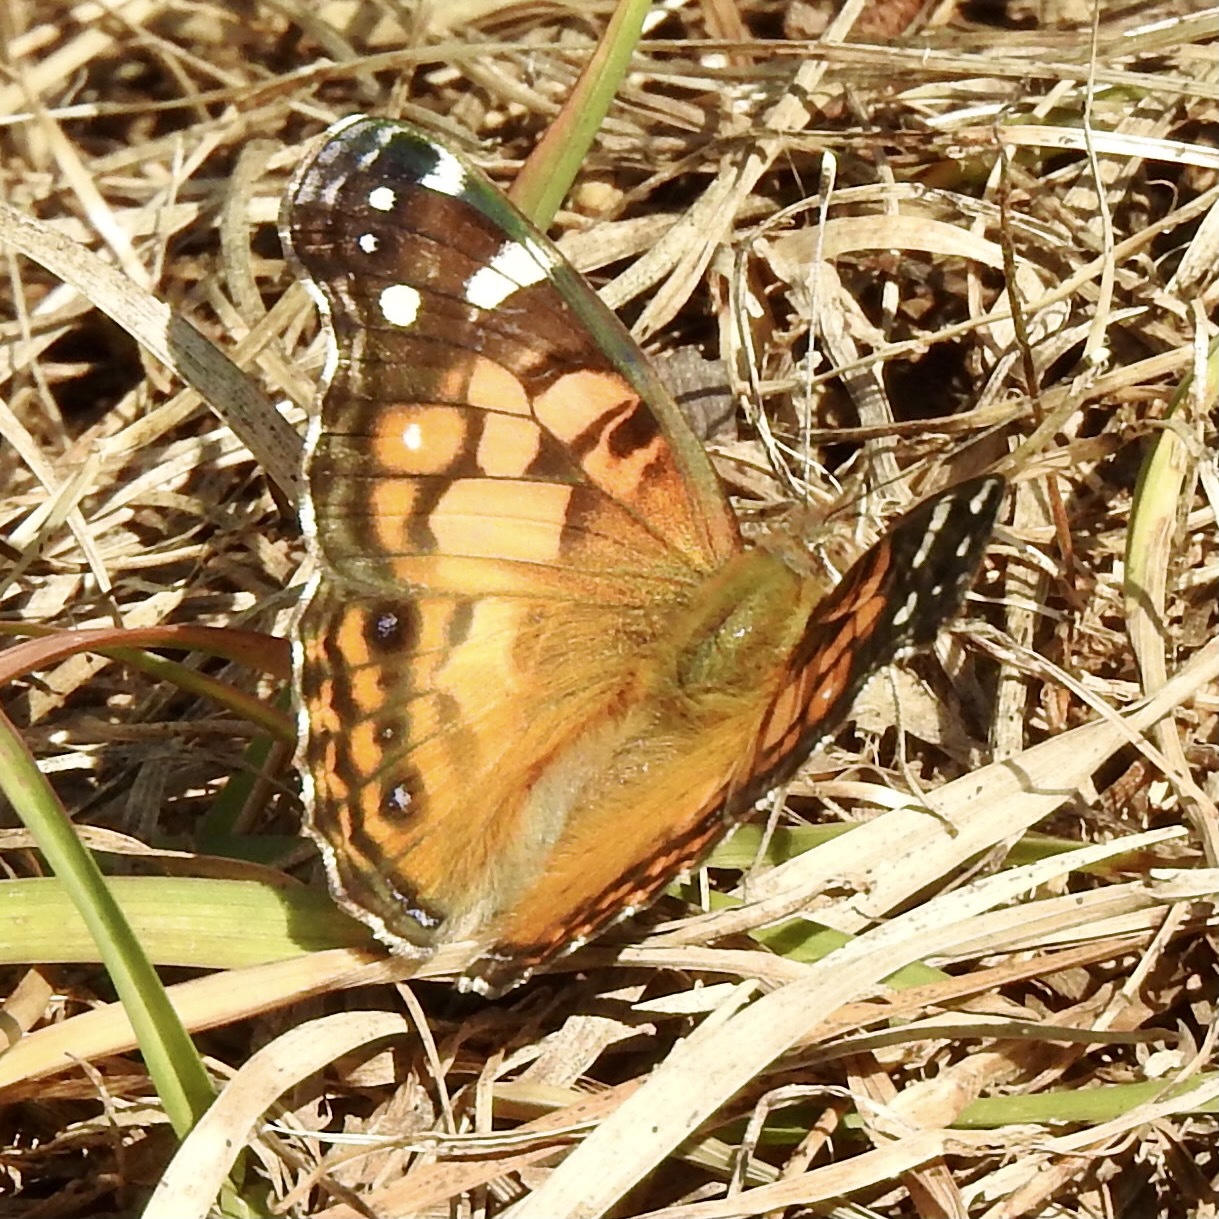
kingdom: Animalia
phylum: Arthropoda
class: Insecta
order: Lepidoptera
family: Nymphalidae
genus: Vanessa
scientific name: Vanessa virginiensis
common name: American lady
